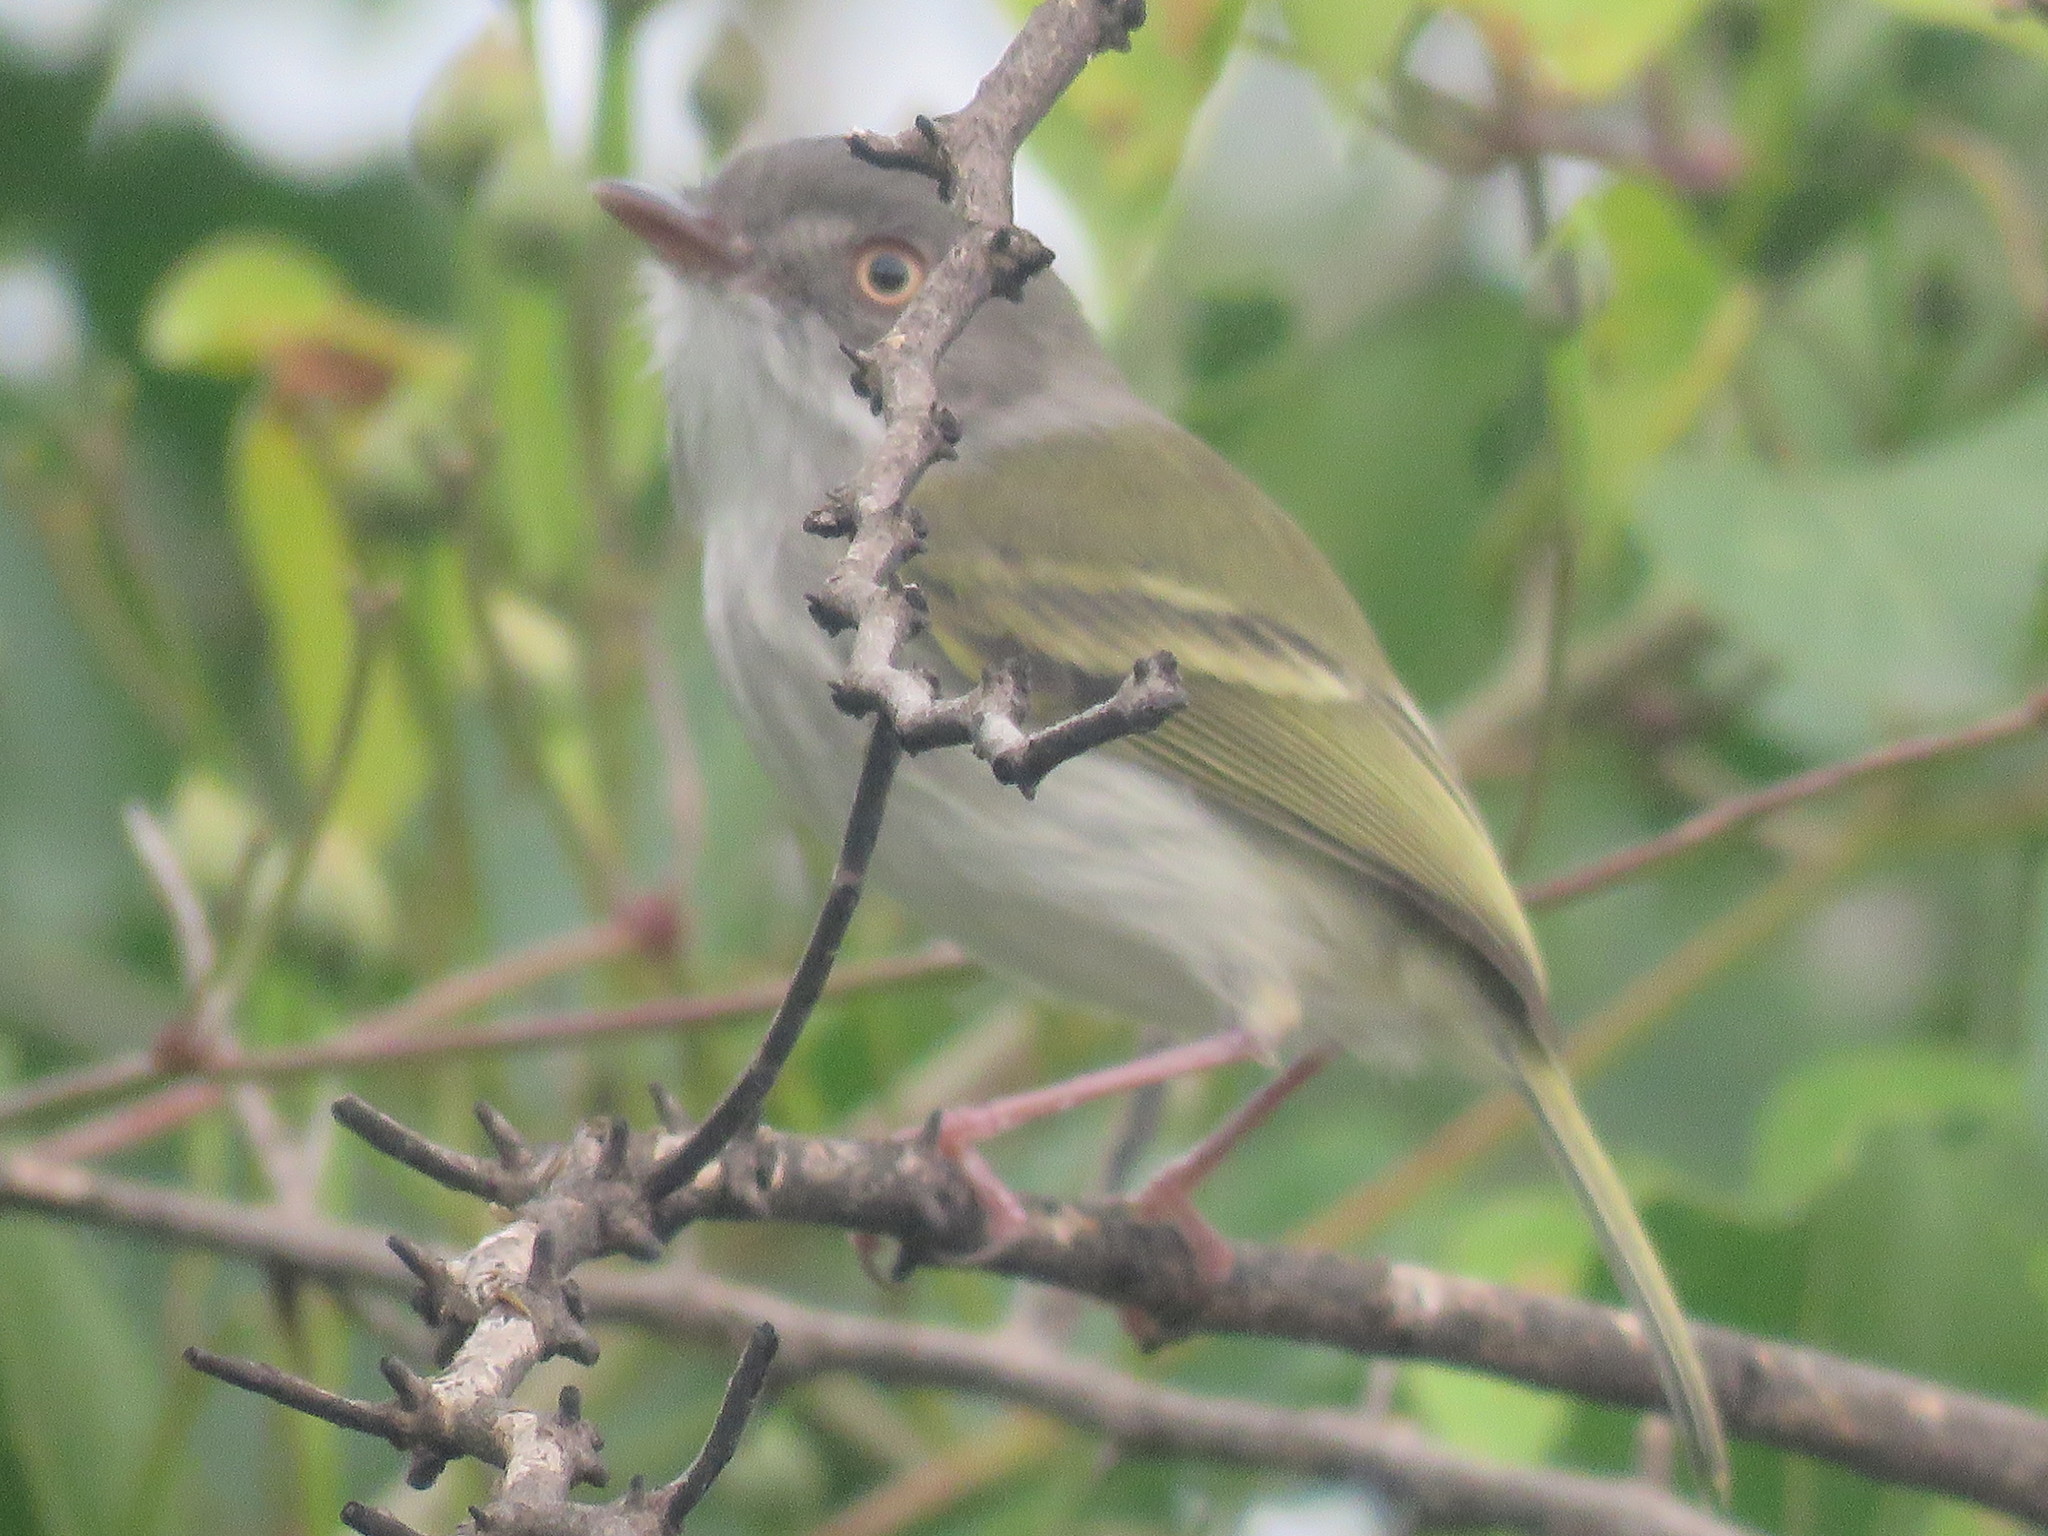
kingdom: Animalia
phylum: Chordata
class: Aves
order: Passeriformes
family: Tyrannidae
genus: Hemitriccus
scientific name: Hemitriccus margaritaceiventer
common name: Pearly-vented tody-tyrant
